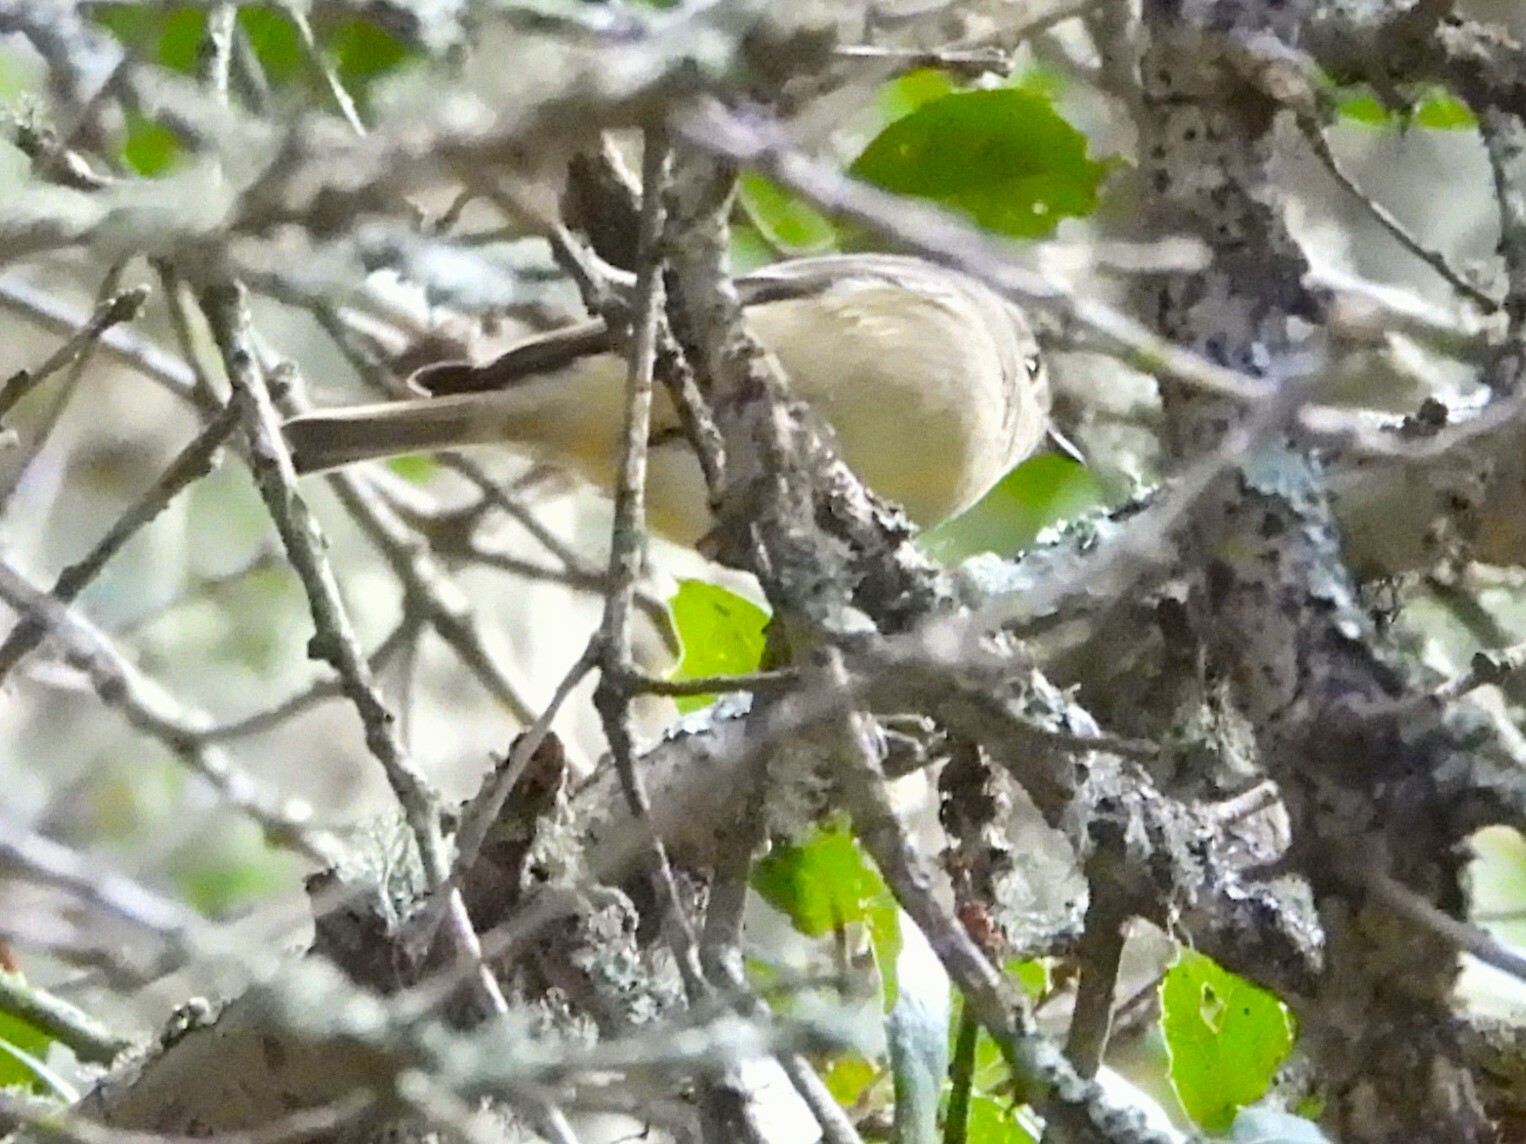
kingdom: Animalia
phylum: Chordata
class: Aves
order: Passeriformes
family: Regulidae
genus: Regulus
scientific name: Regulus calendula
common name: Ruby-crowned kinglet
